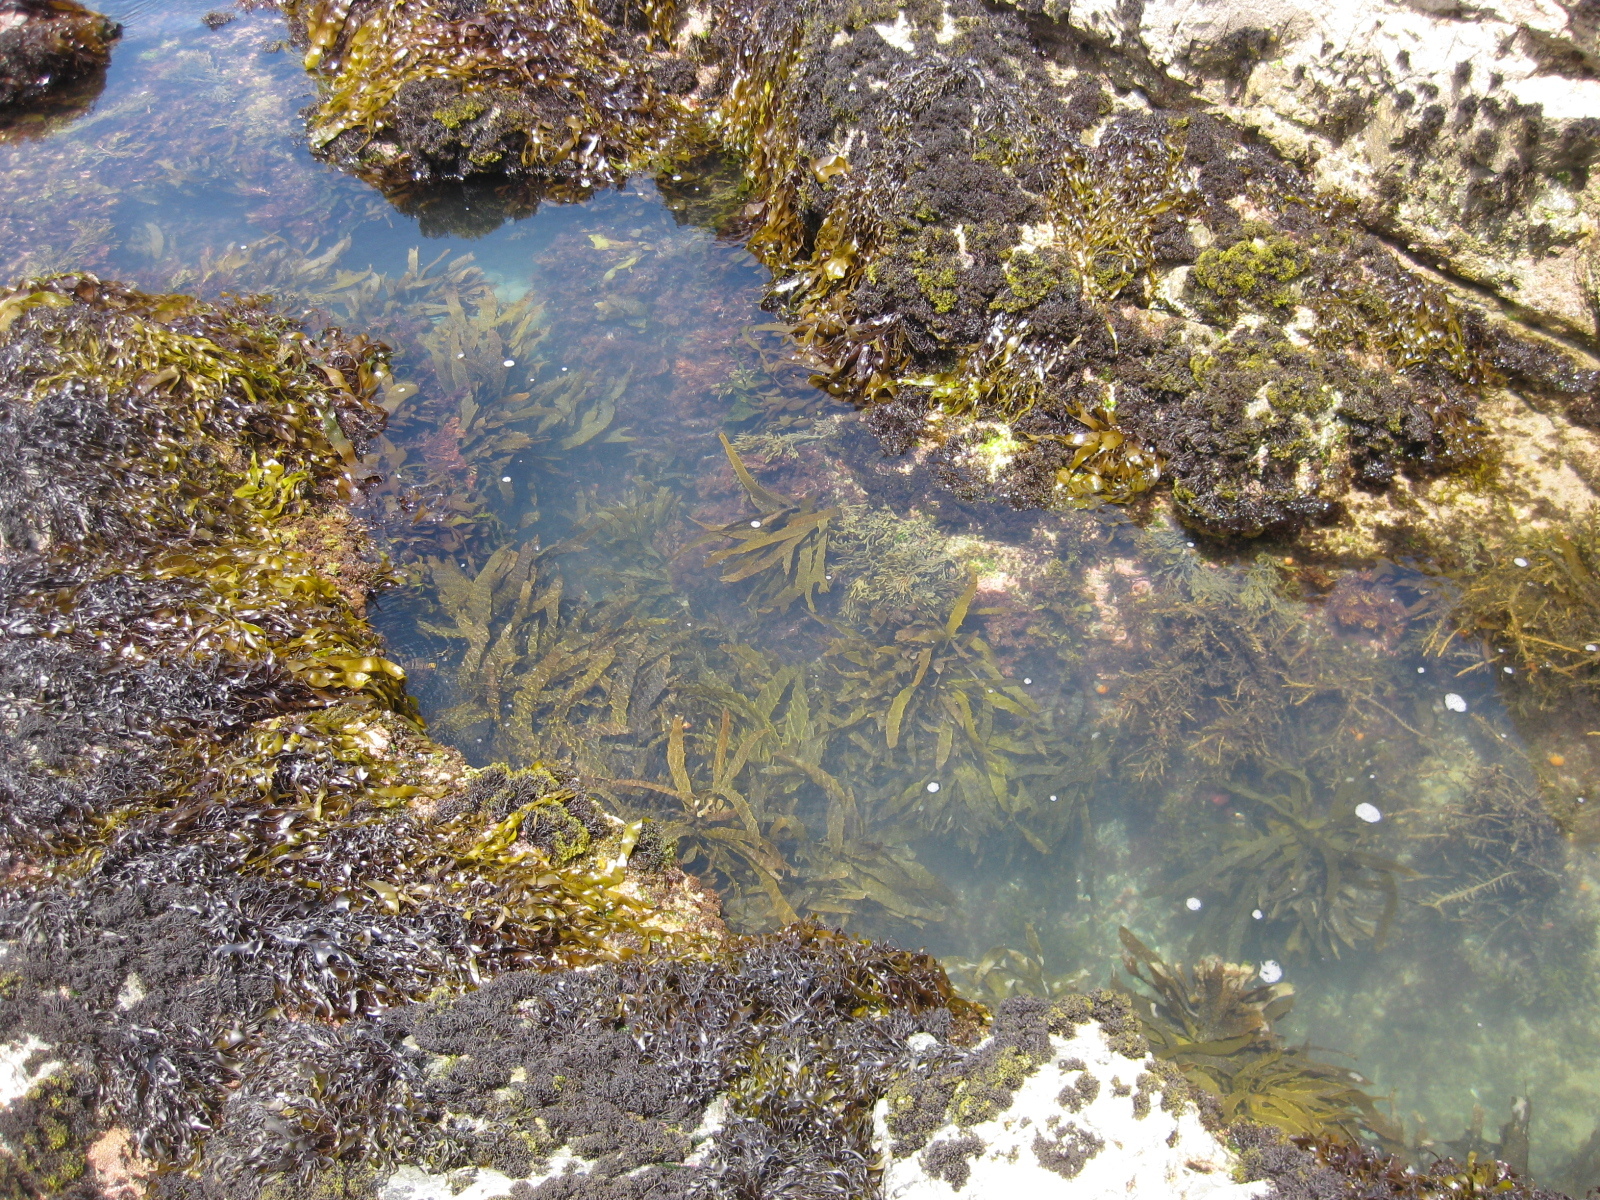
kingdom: Chromista
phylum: Ochrophyta
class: Phaeophyceae
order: Laminariales
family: Lessoniaceae
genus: Ecklonia
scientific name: Ecklonia radiata
